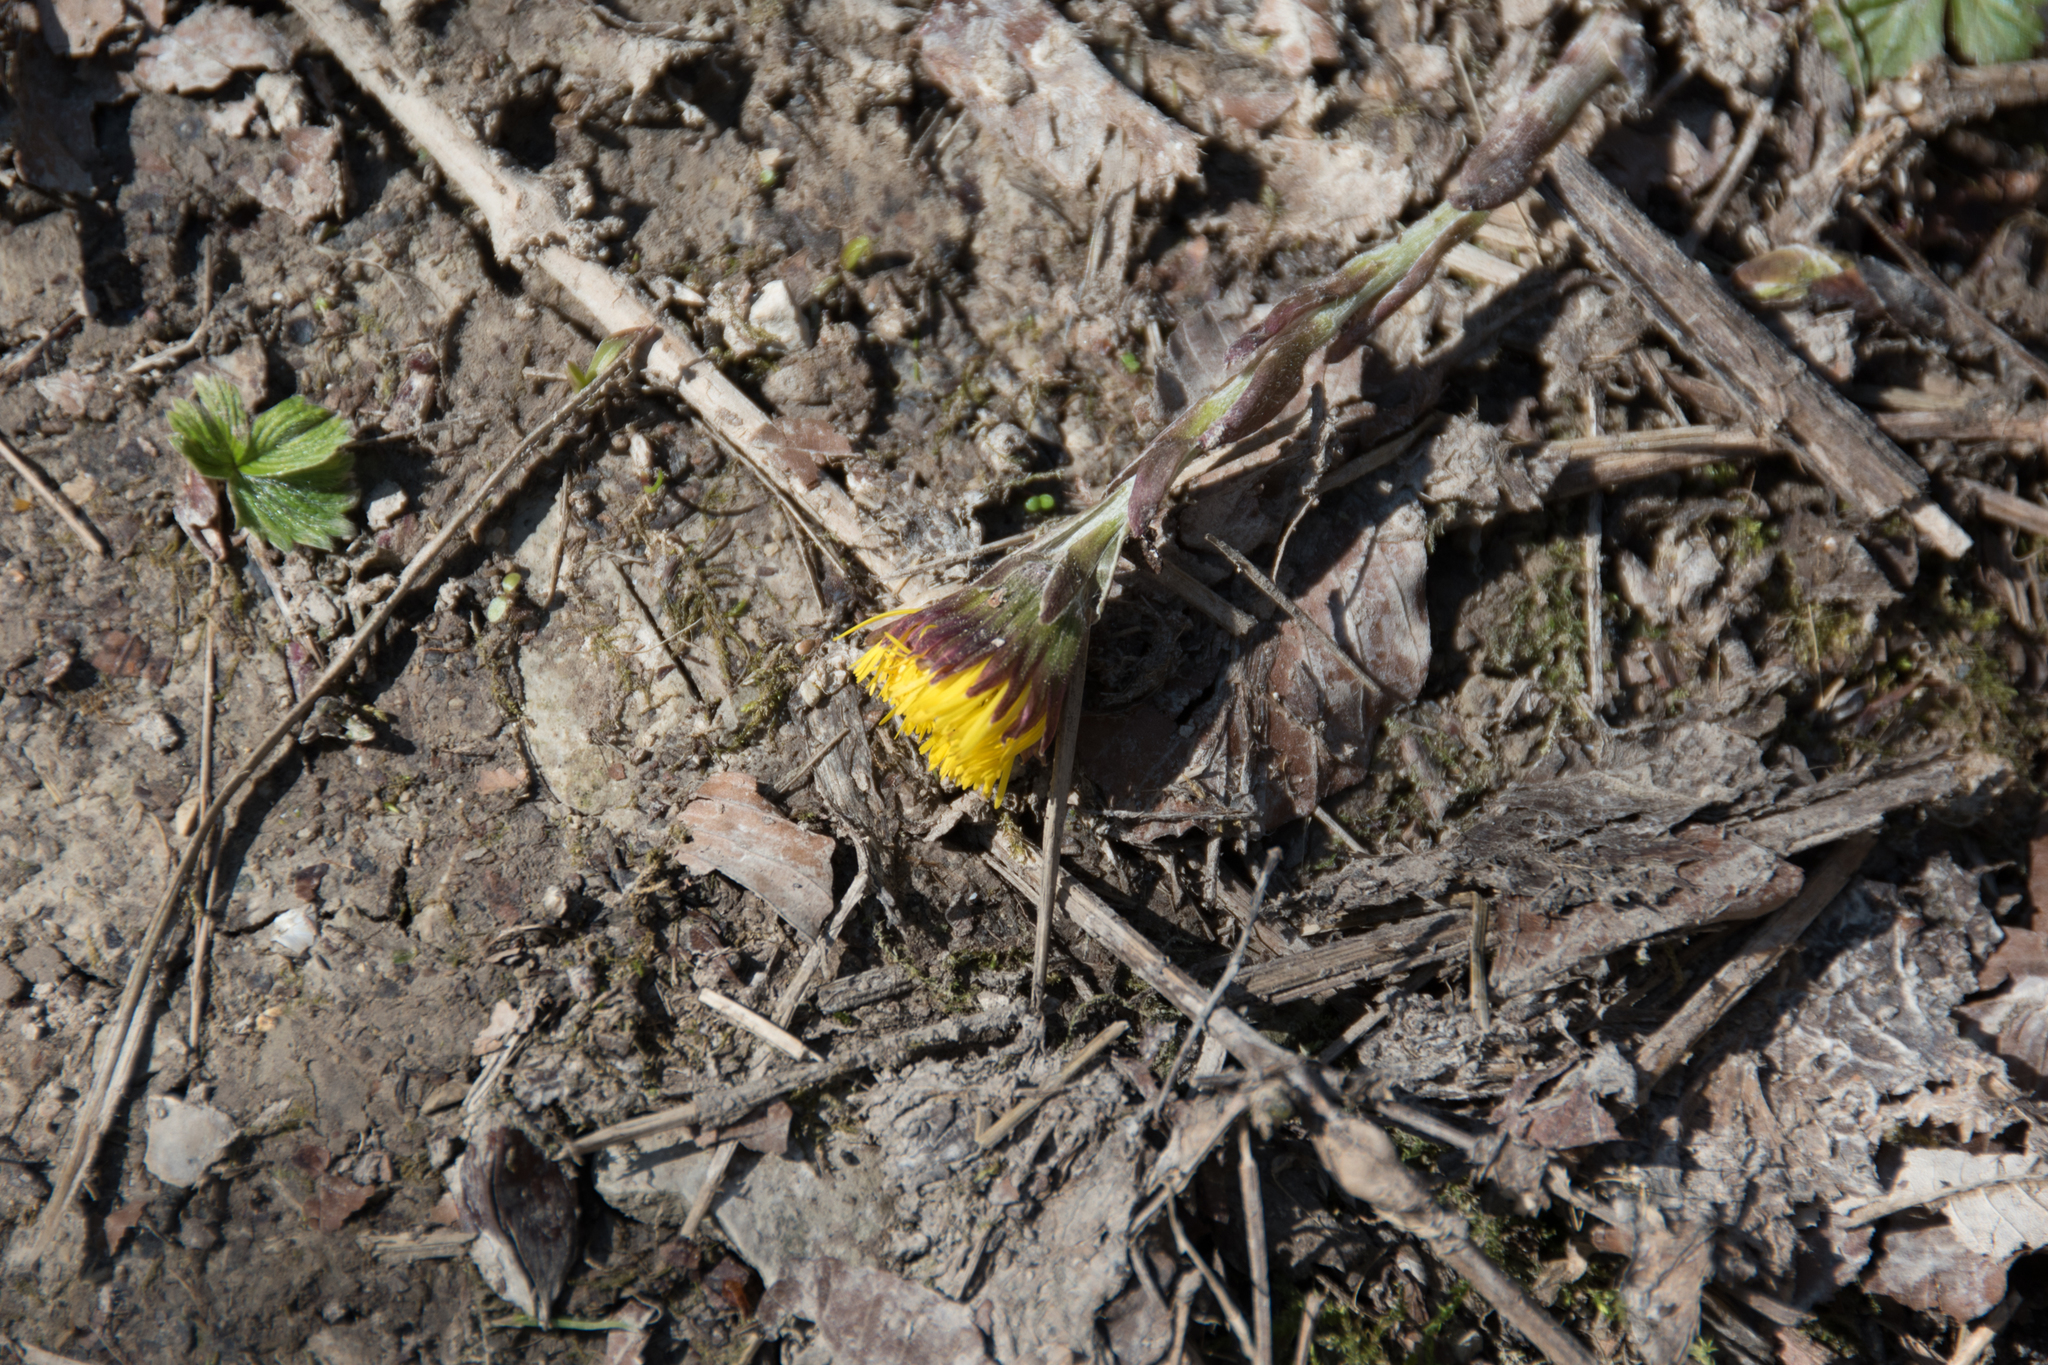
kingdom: Plantae
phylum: Tracheophyta
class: Magnoliopsida
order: Asterales
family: Asteraceae
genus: Tussilago
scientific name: Tussilago farfara
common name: Coltsfoot
